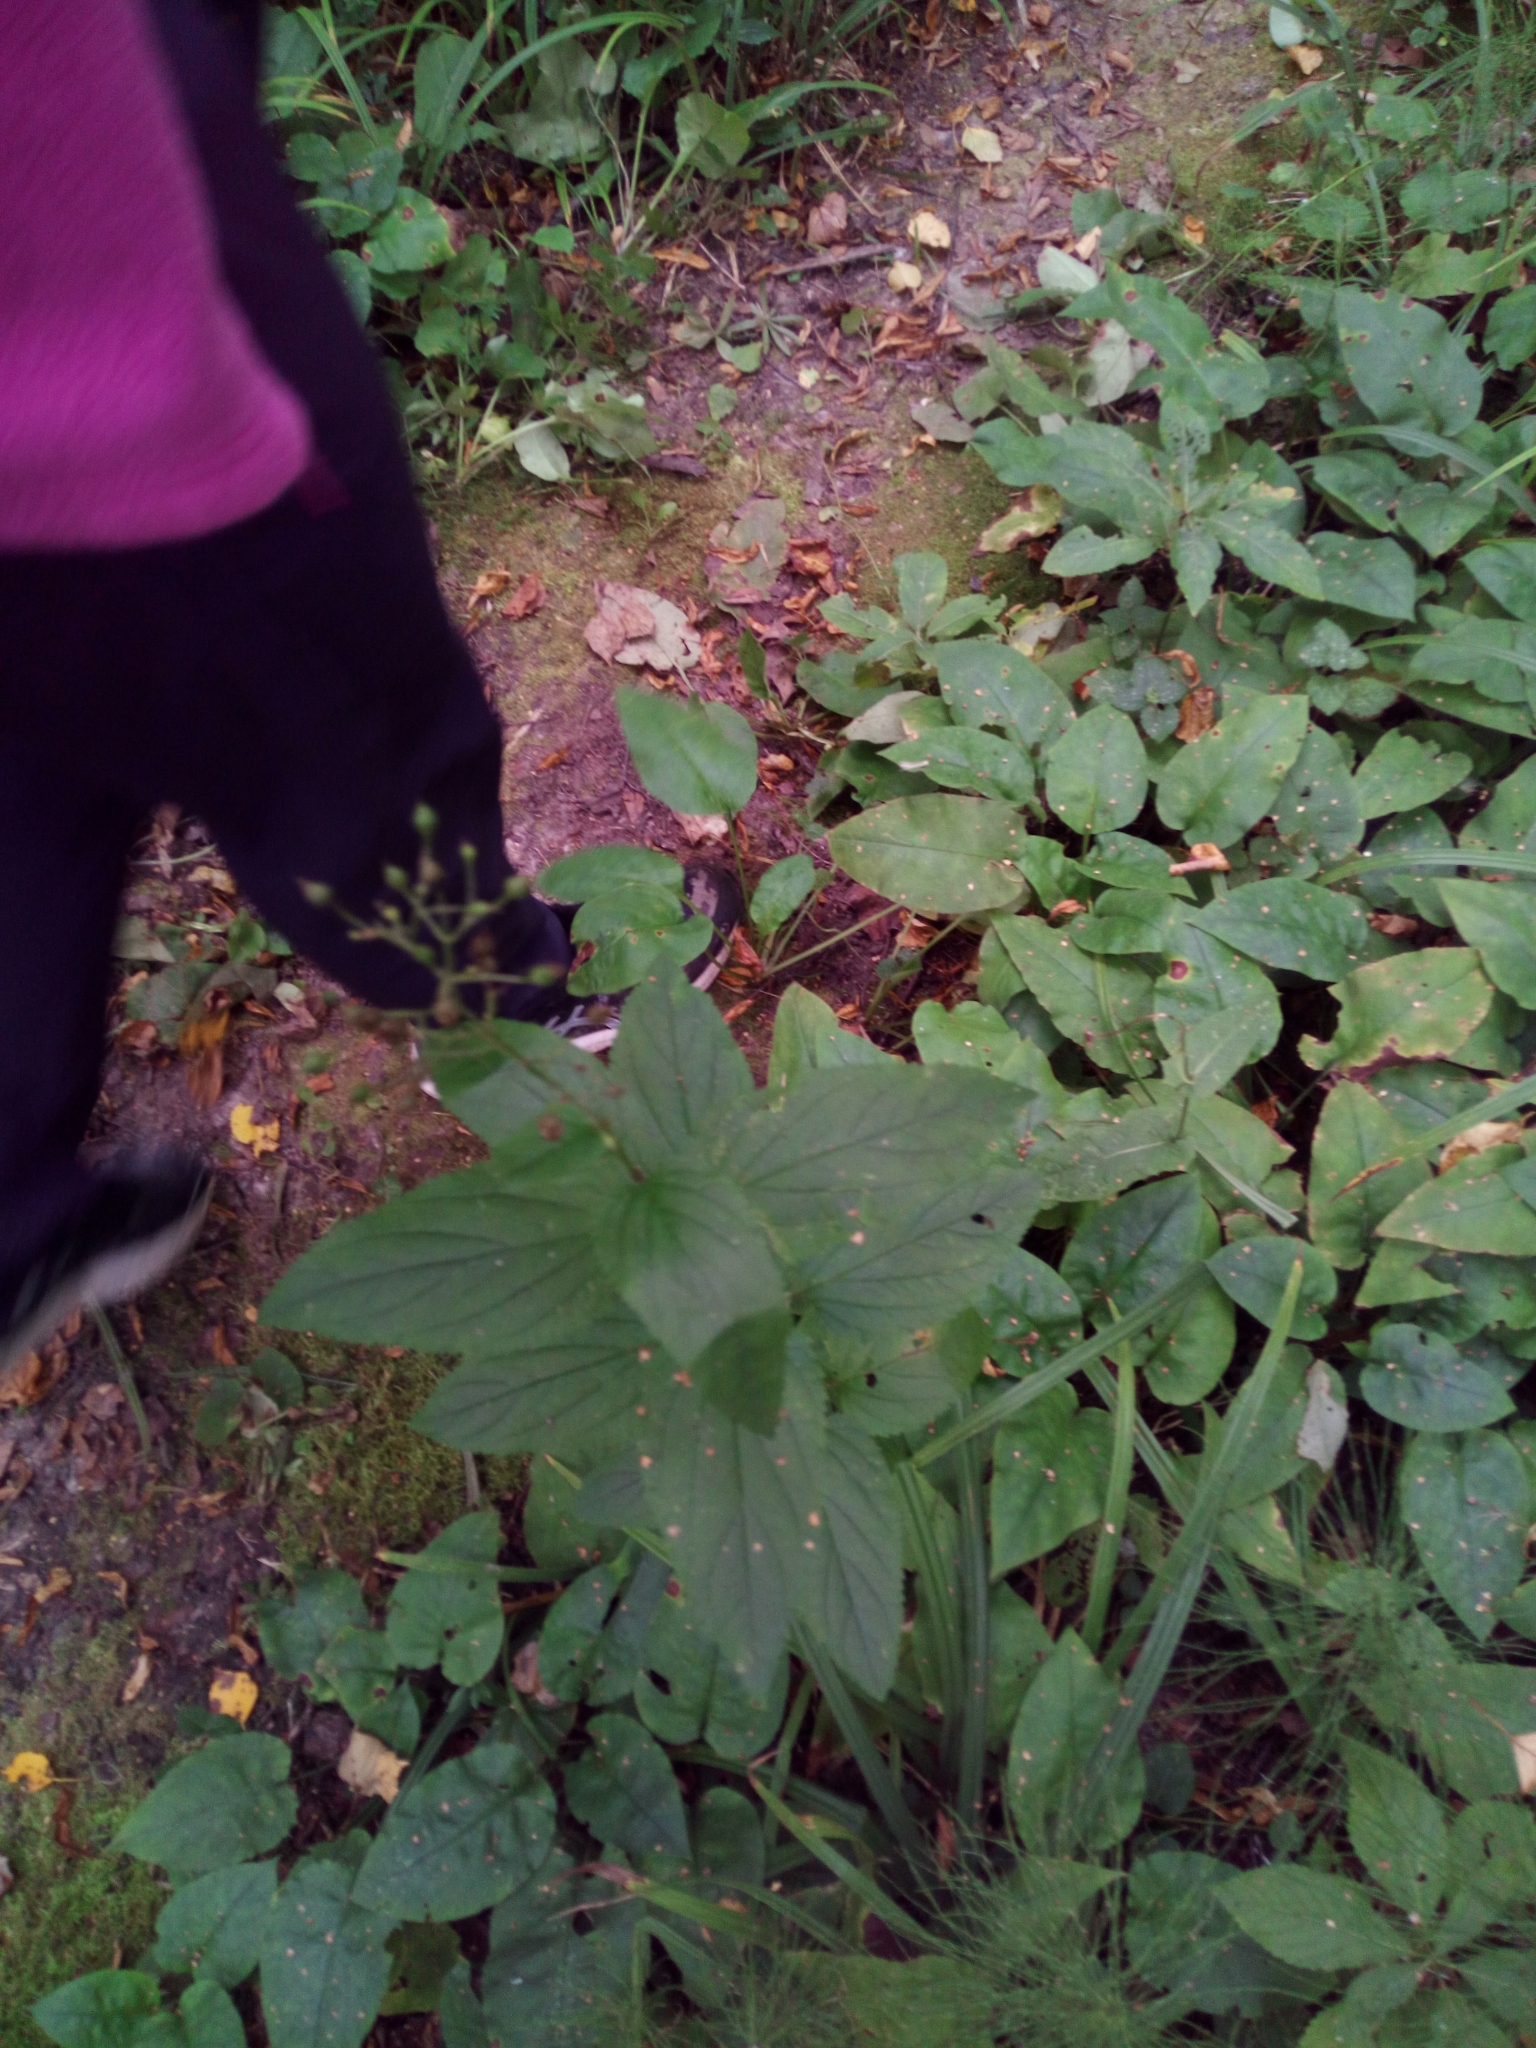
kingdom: Plantae
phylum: Tracheophyta
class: Magnoliopsida
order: Lamiales
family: Scrophulariaceae
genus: Scrophularia
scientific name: Scrophularia nodosa
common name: Common figwort
